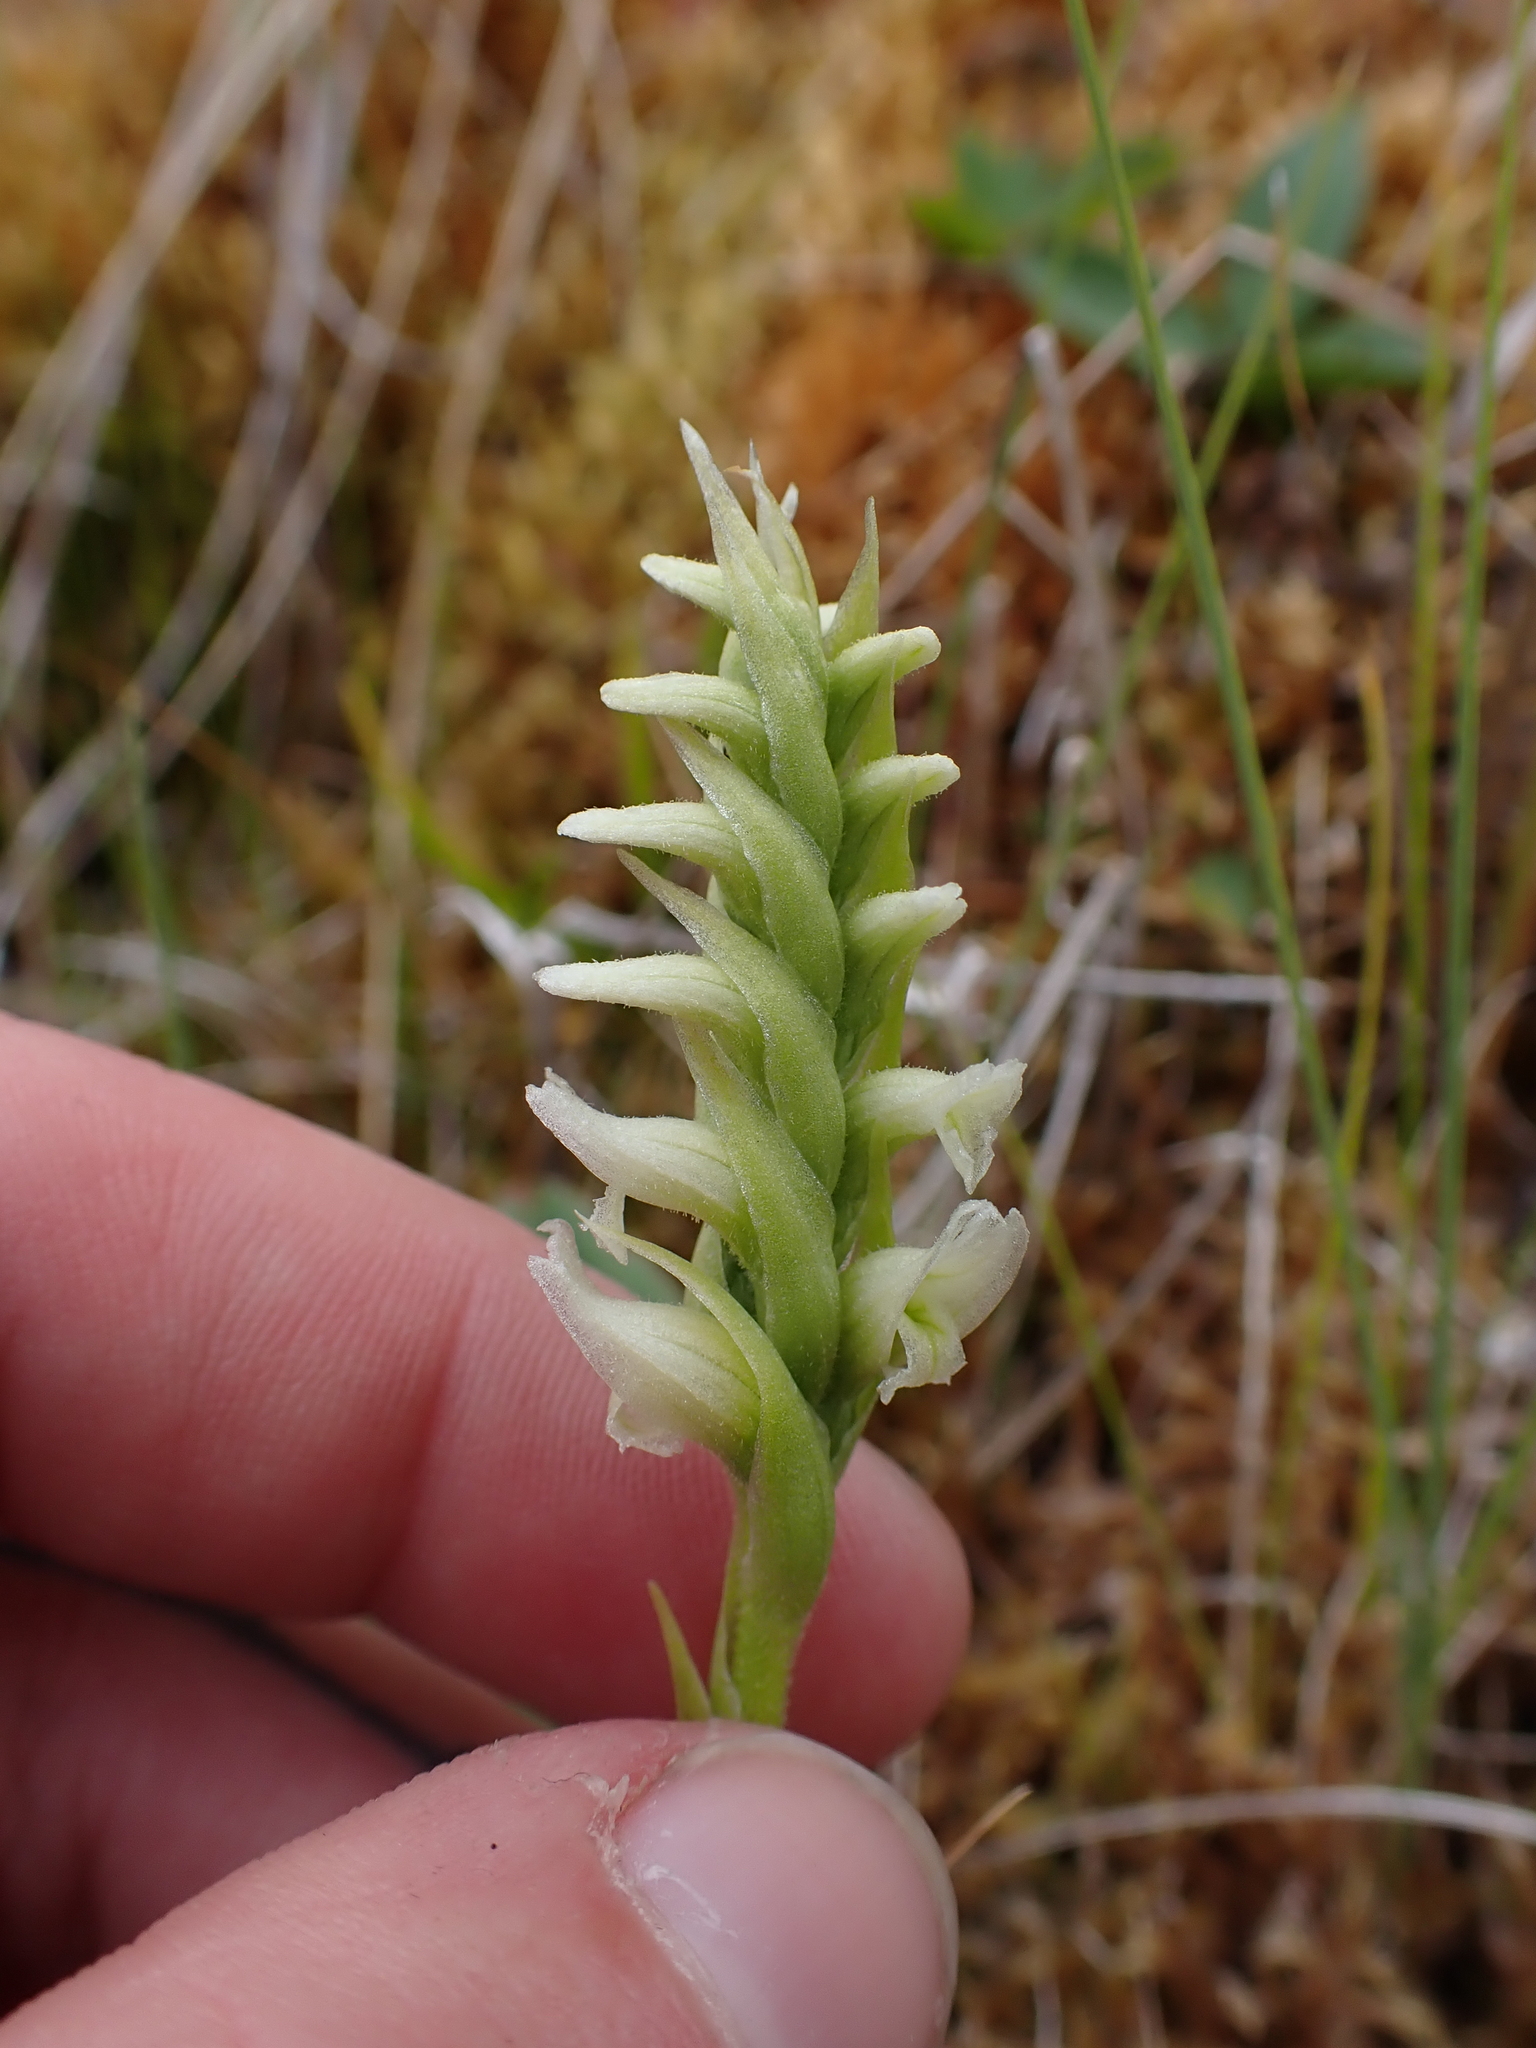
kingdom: Plantae
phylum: Tracheophyta
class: Liliopsida
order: Asparagales
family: Orchidaceae
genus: Spiranthes
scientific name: Spiranthes romanzoffiana
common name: Irish lady's-tresses
